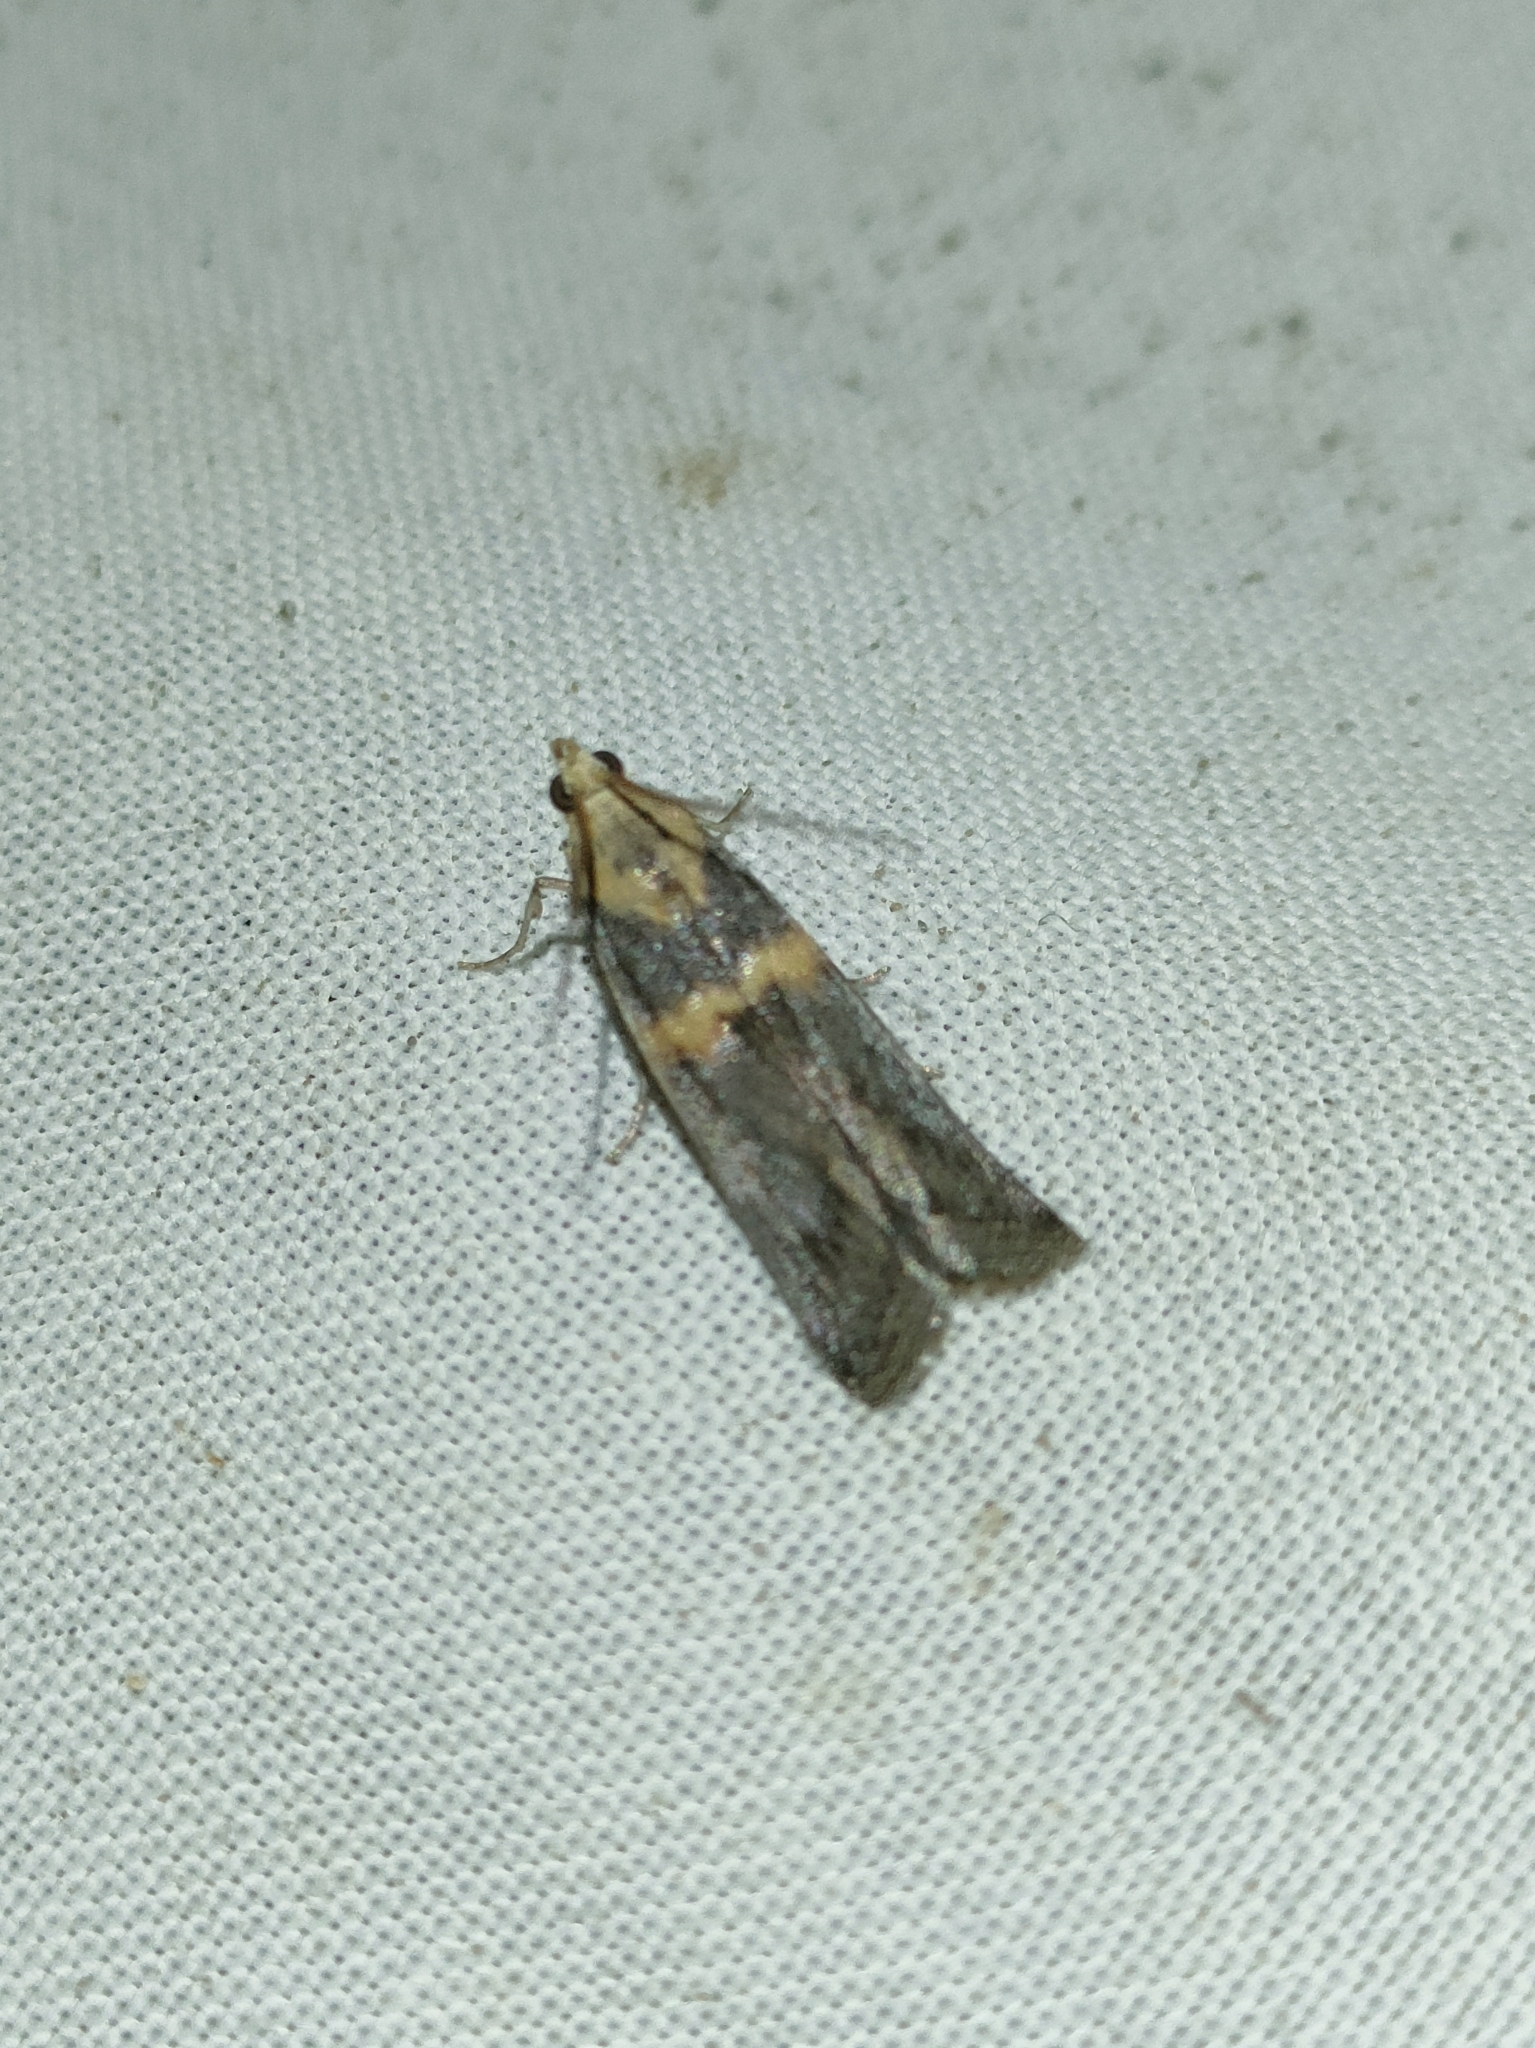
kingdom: Animalia
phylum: Arthropoda
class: Insecta
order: Lepidoptera
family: Pyralidae
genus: Oxybia
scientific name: Oxybia transversella
